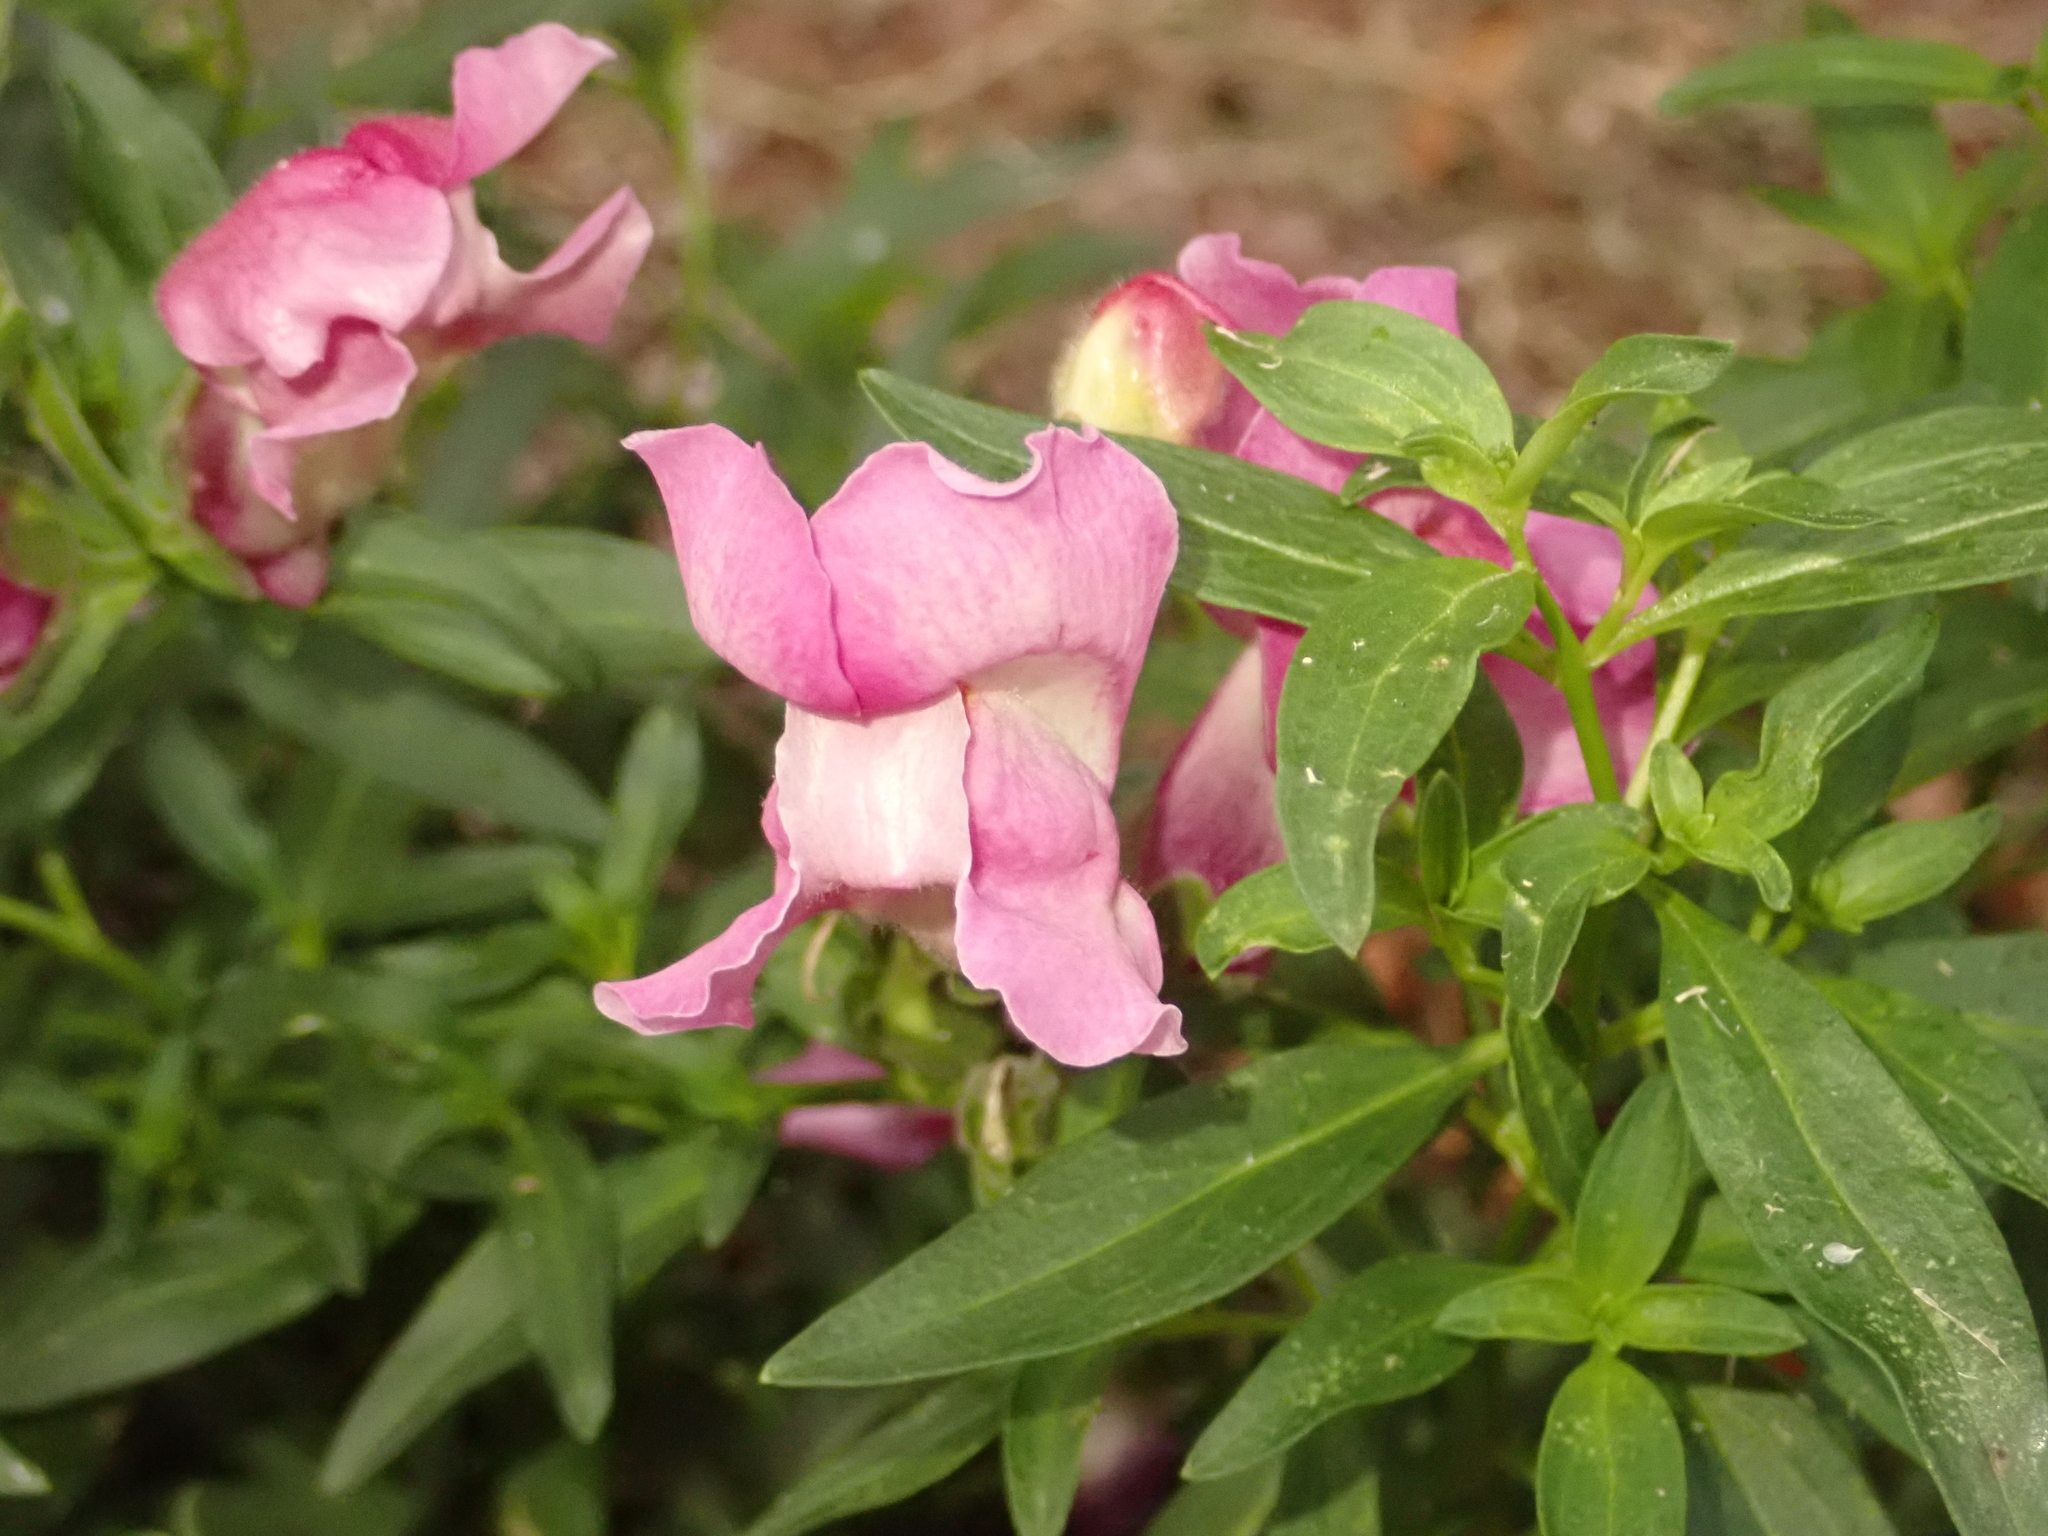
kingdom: Plantae
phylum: Tracheophyta
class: Magnoliopsida
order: Lamiales
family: Plantaginaceae
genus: Antirrhinum
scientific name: Antirrhinum majus
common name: Snapdragon
